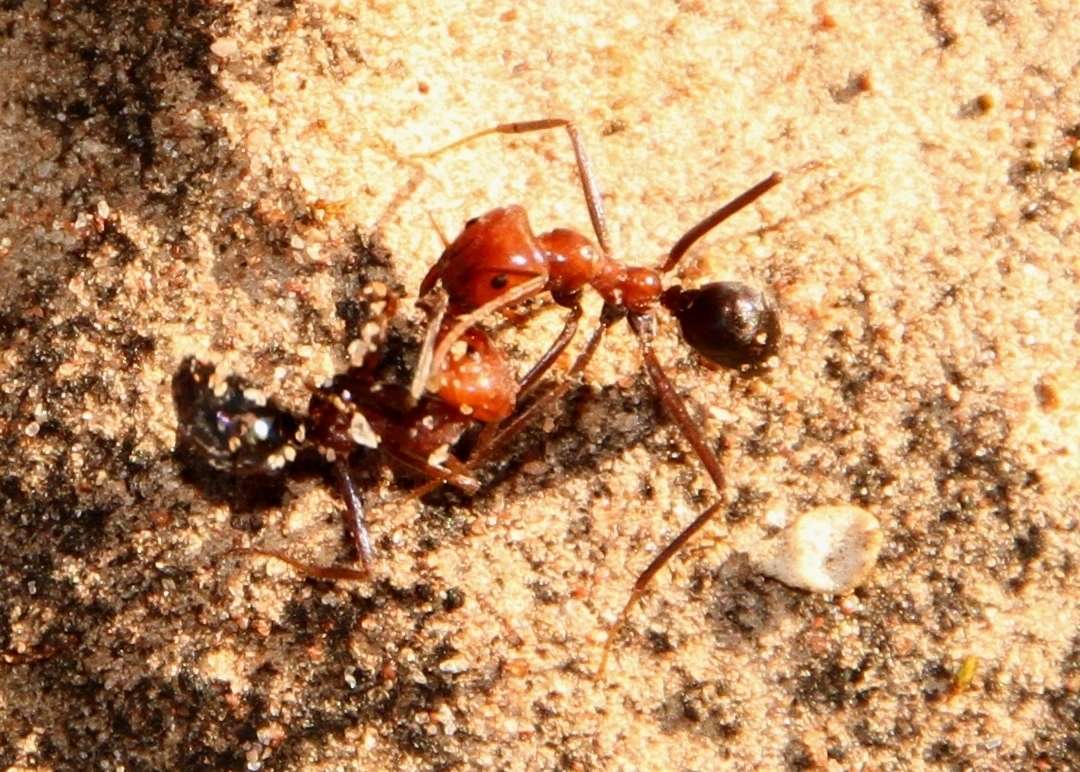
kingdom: Animalia
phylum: Arthropoda
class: Insecta
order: Hymenoptera
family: Formicidae
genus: Iridomyrmex
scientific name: Iridomyrmex agilis
